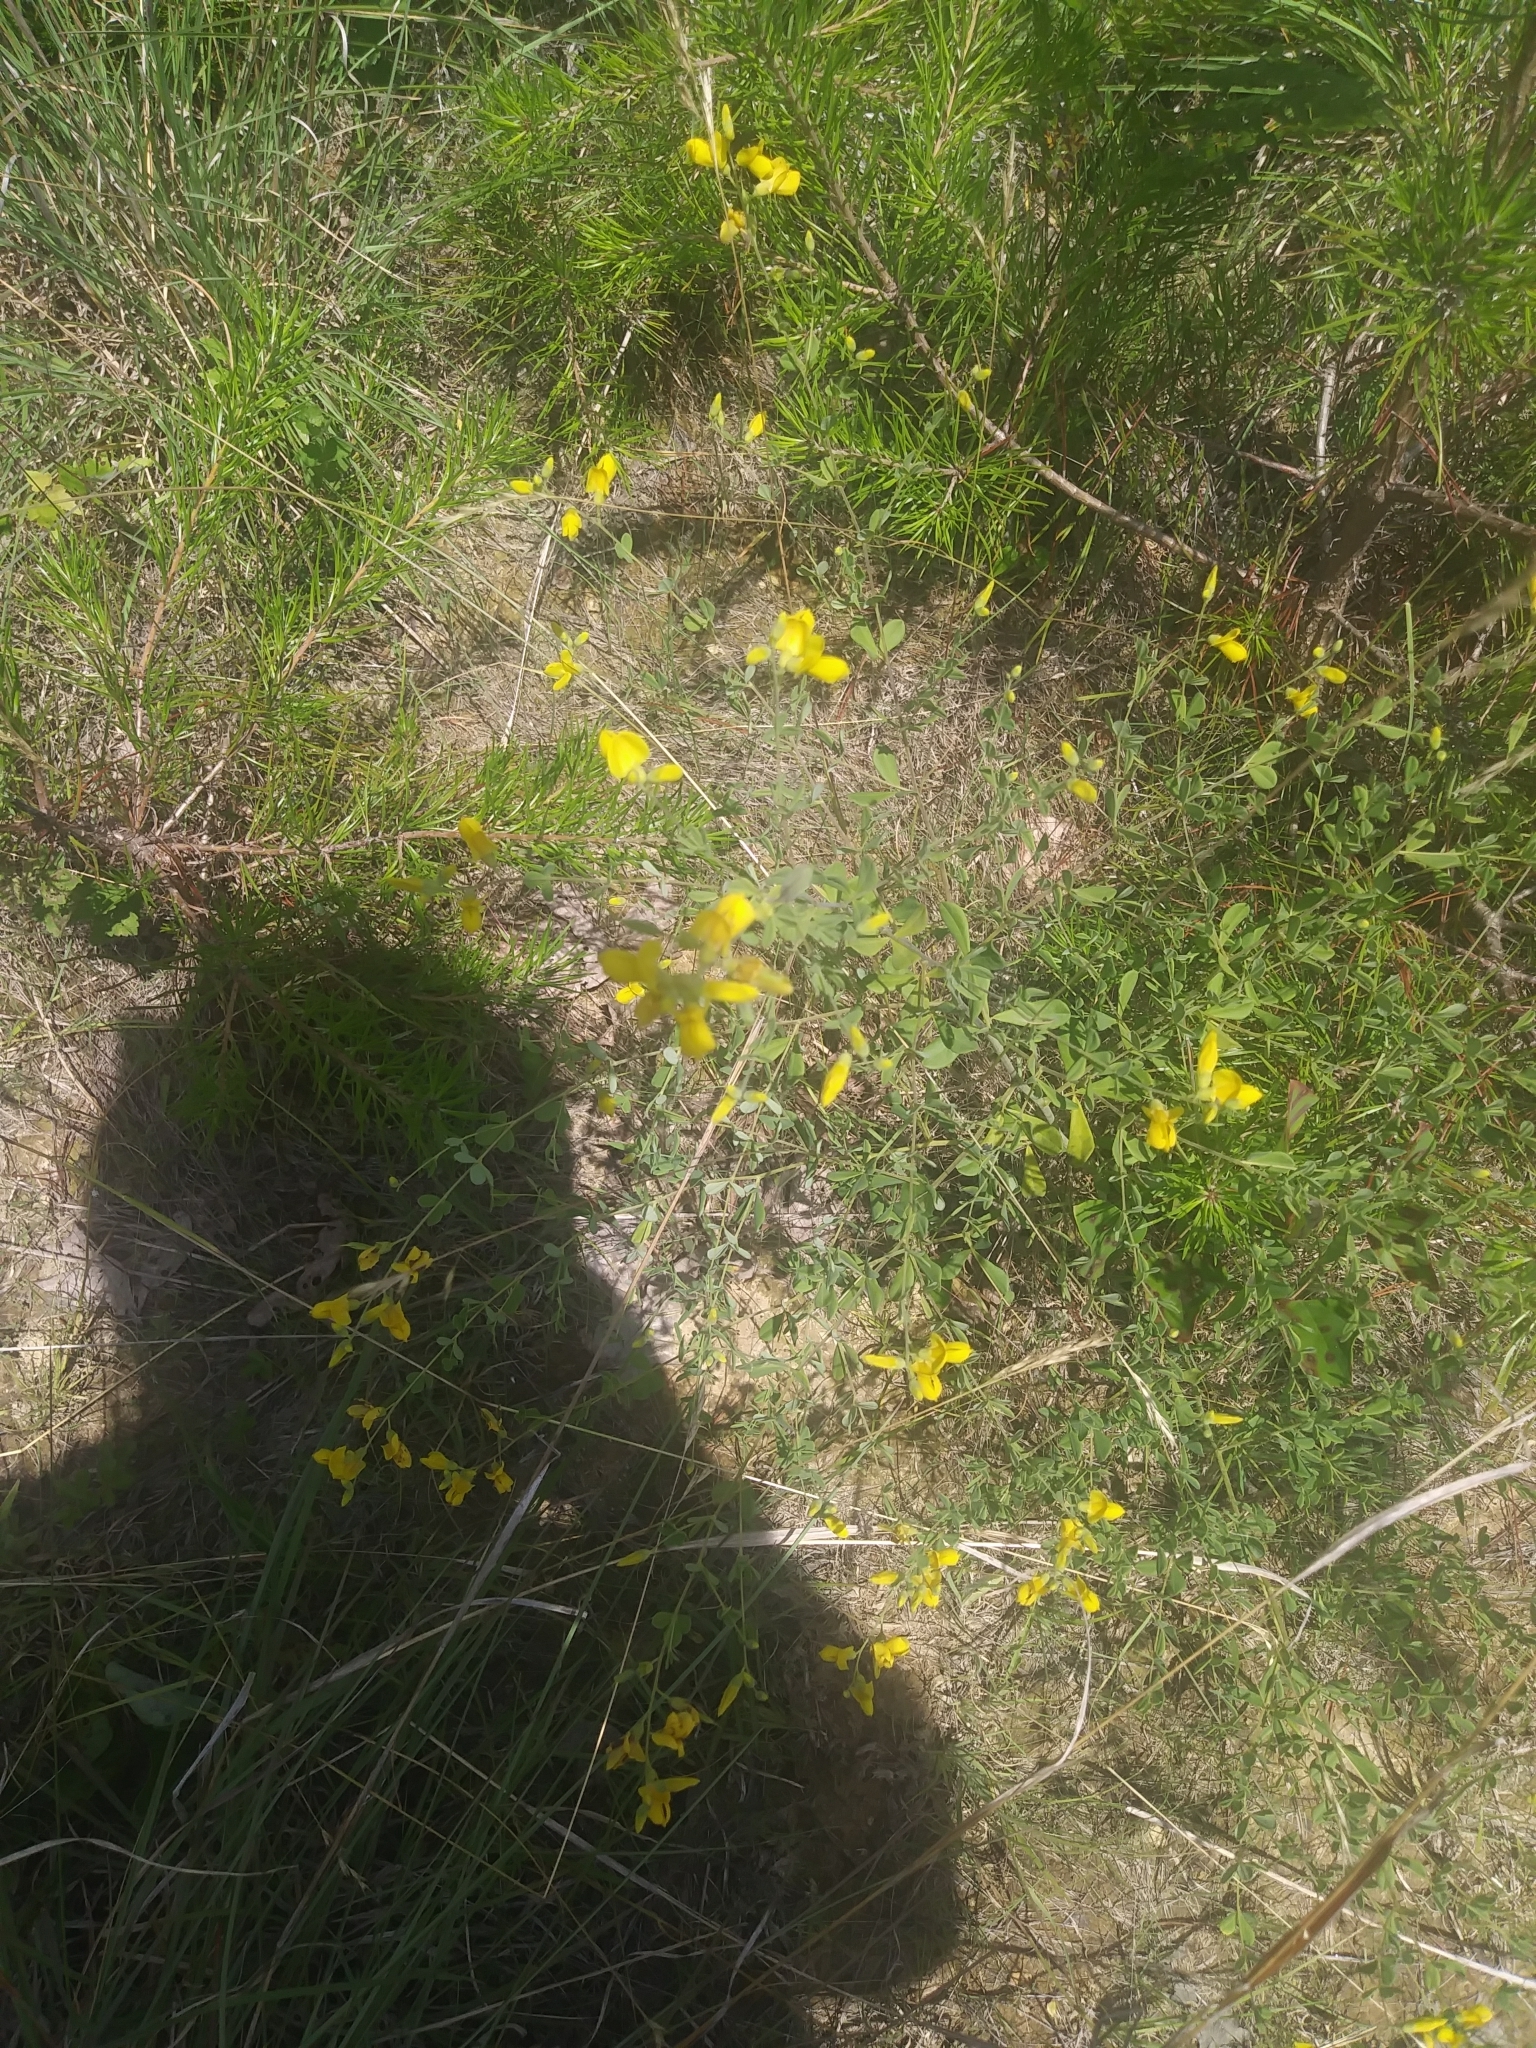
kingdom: Plantae
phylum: Tracheophyta
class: Magnoliopsida
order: Fabales
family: Fabaceae
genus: Baptisia
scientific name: Baptisia tinctoria
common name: Wild indigo
